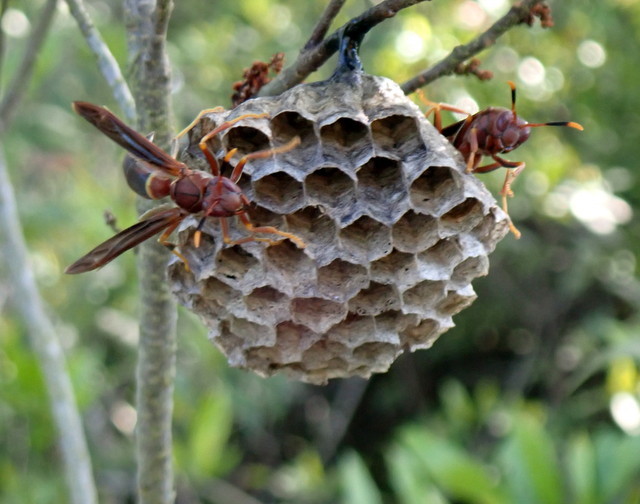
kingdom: Animalia
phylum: Arthropoda
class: Insecta
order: Hymenoptera
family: Eumenidae
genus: Polistes
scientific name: Polistes annularis
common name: Ringed paper wasp
